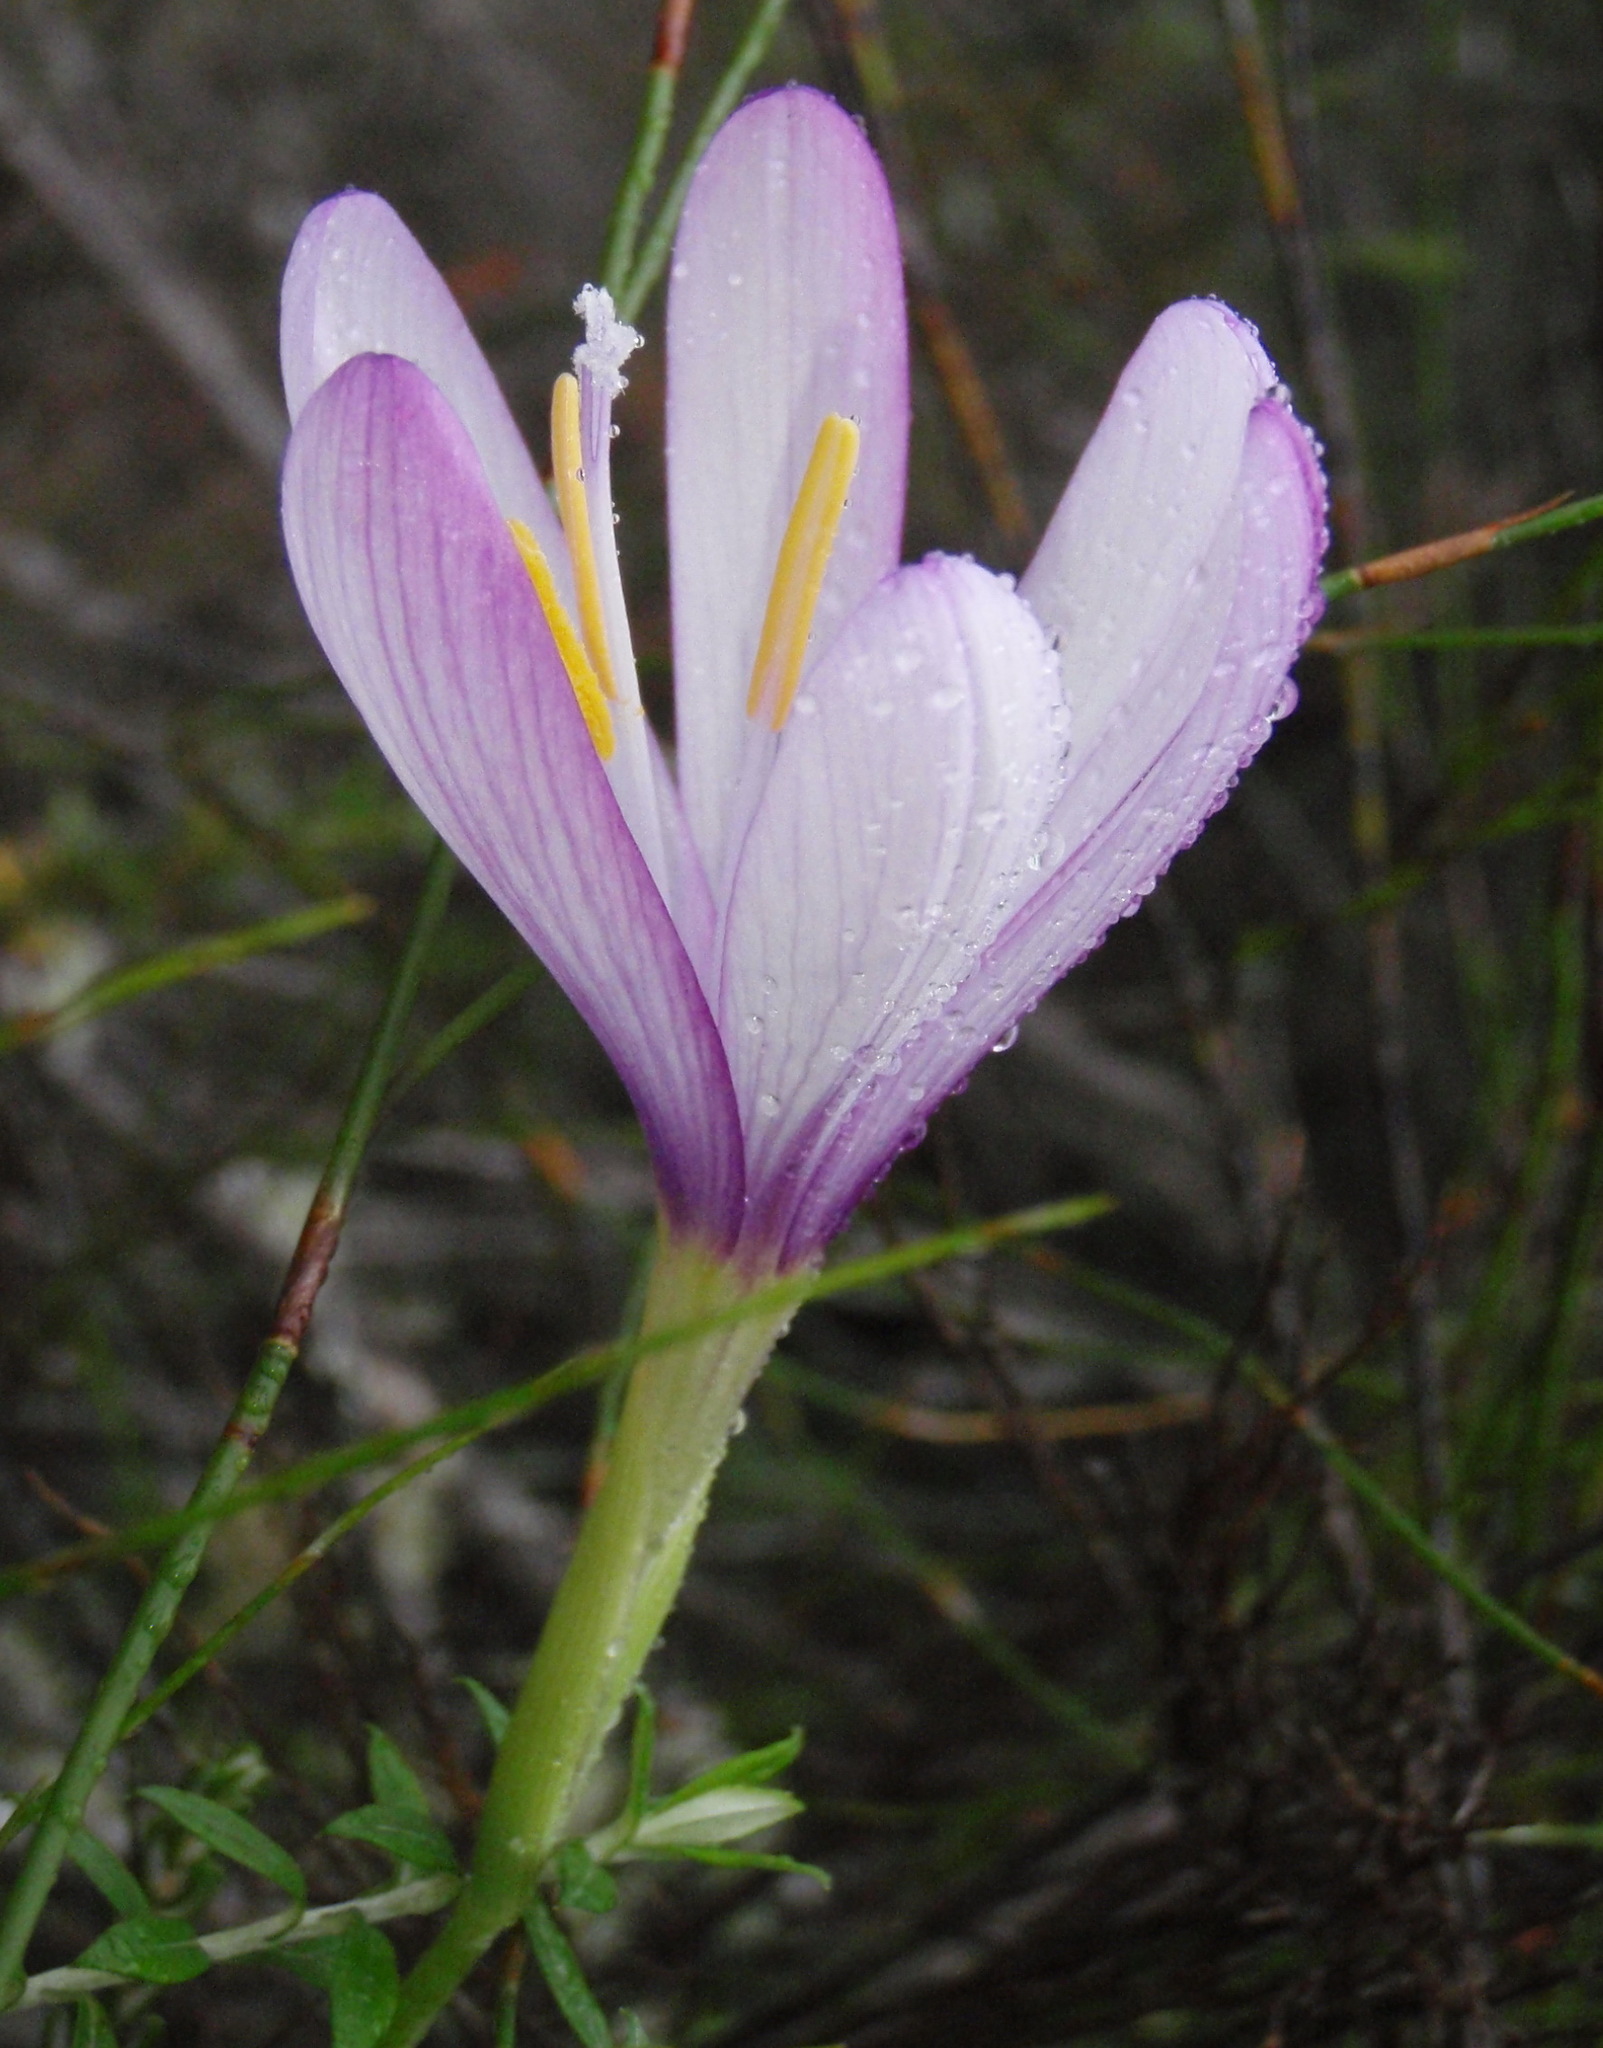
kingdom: Plantae
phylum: Tracheophyta
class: Liliopsida
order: Asparagales
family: Iridaceae
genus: Geissorhiza
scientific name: Geissorhiza elsiae
